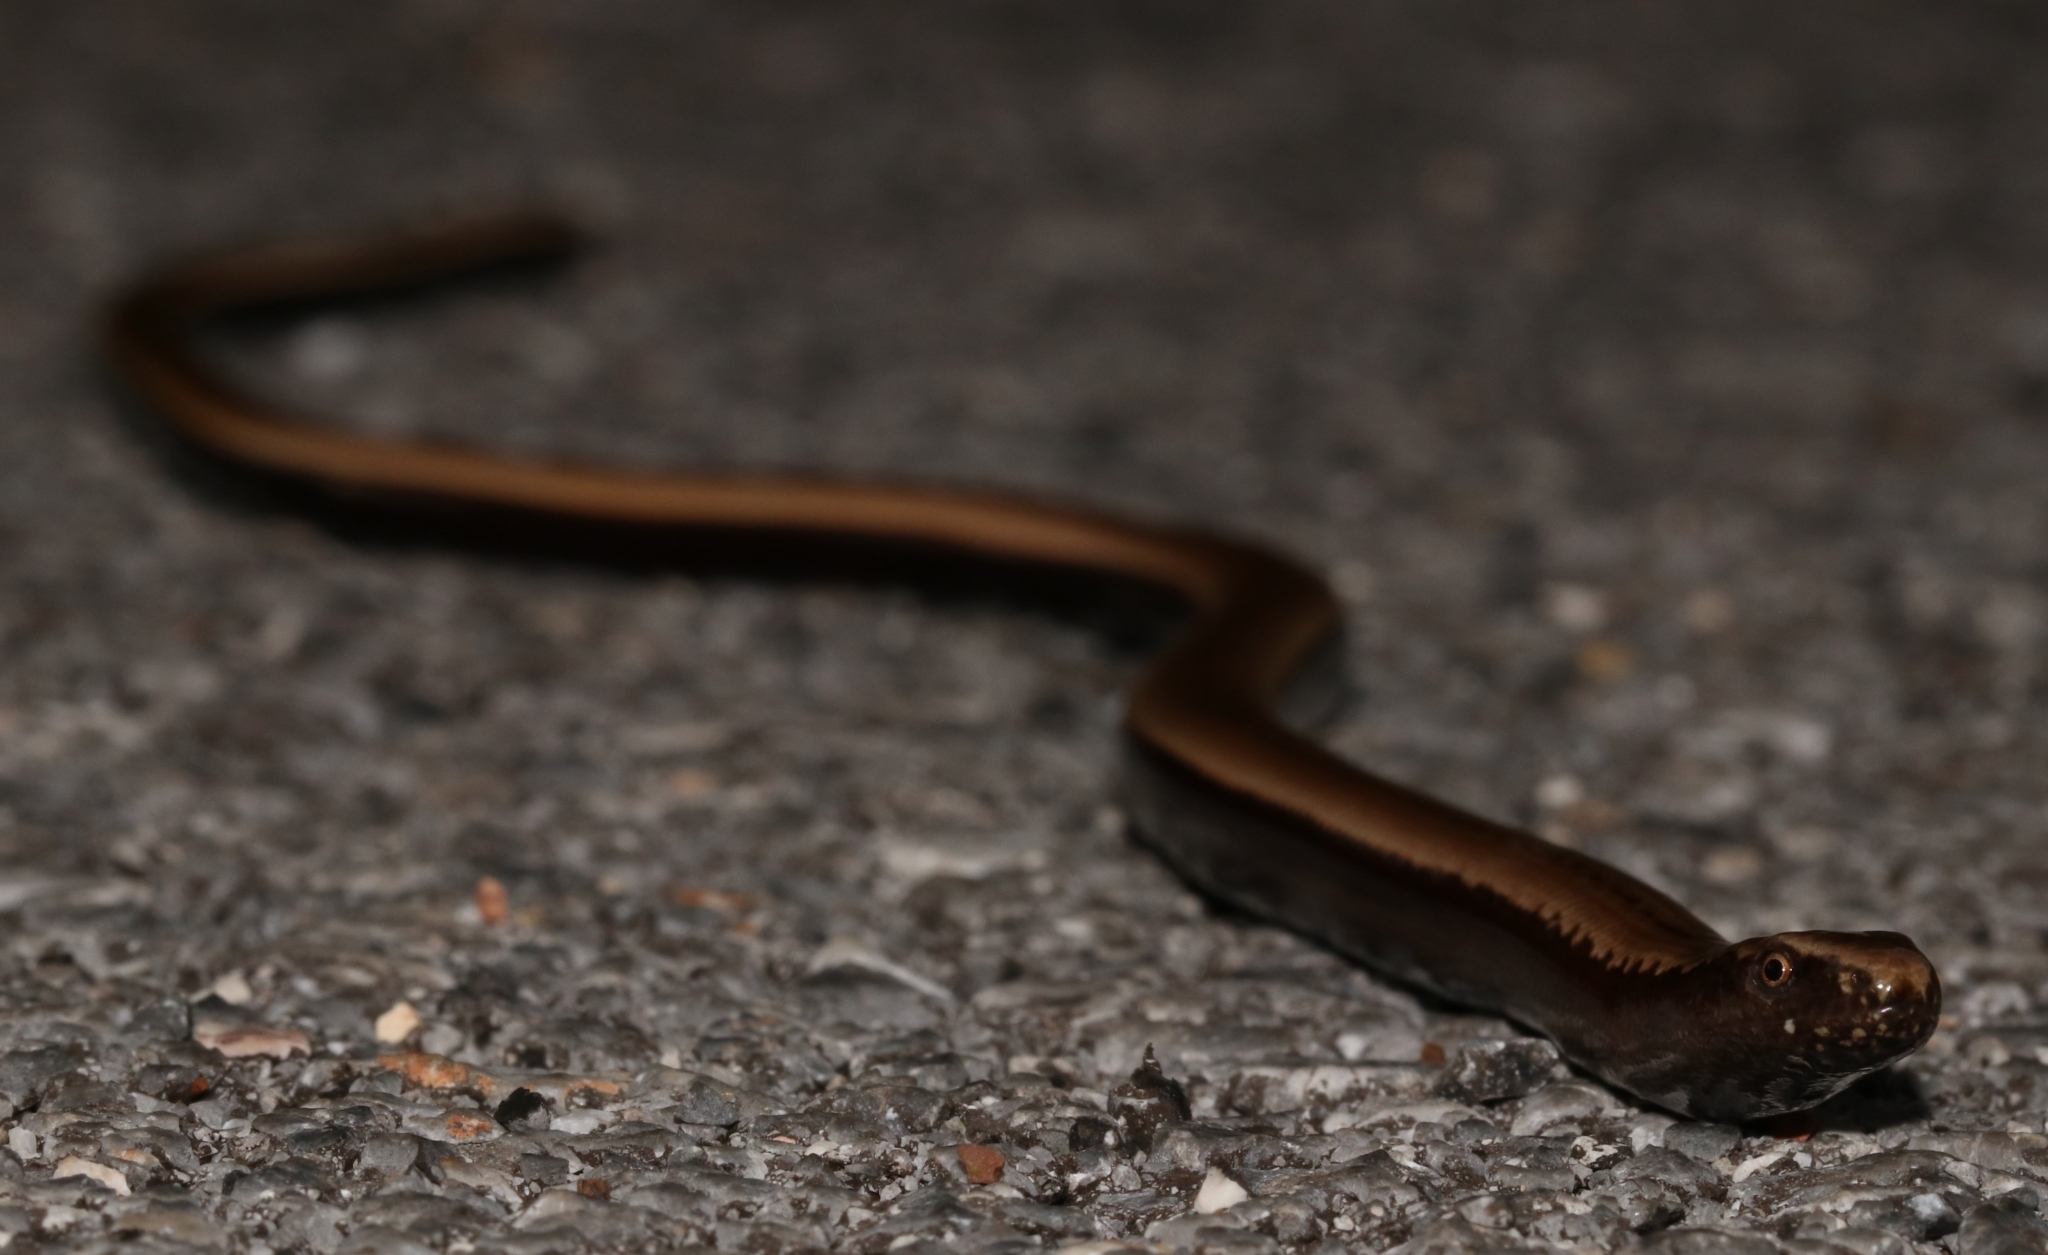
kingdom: Animalia
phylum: Chordata
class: Squamata
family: Anguidae
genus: Anguis
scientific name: Anguis cephallonica
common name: Peloponnese slow worm
